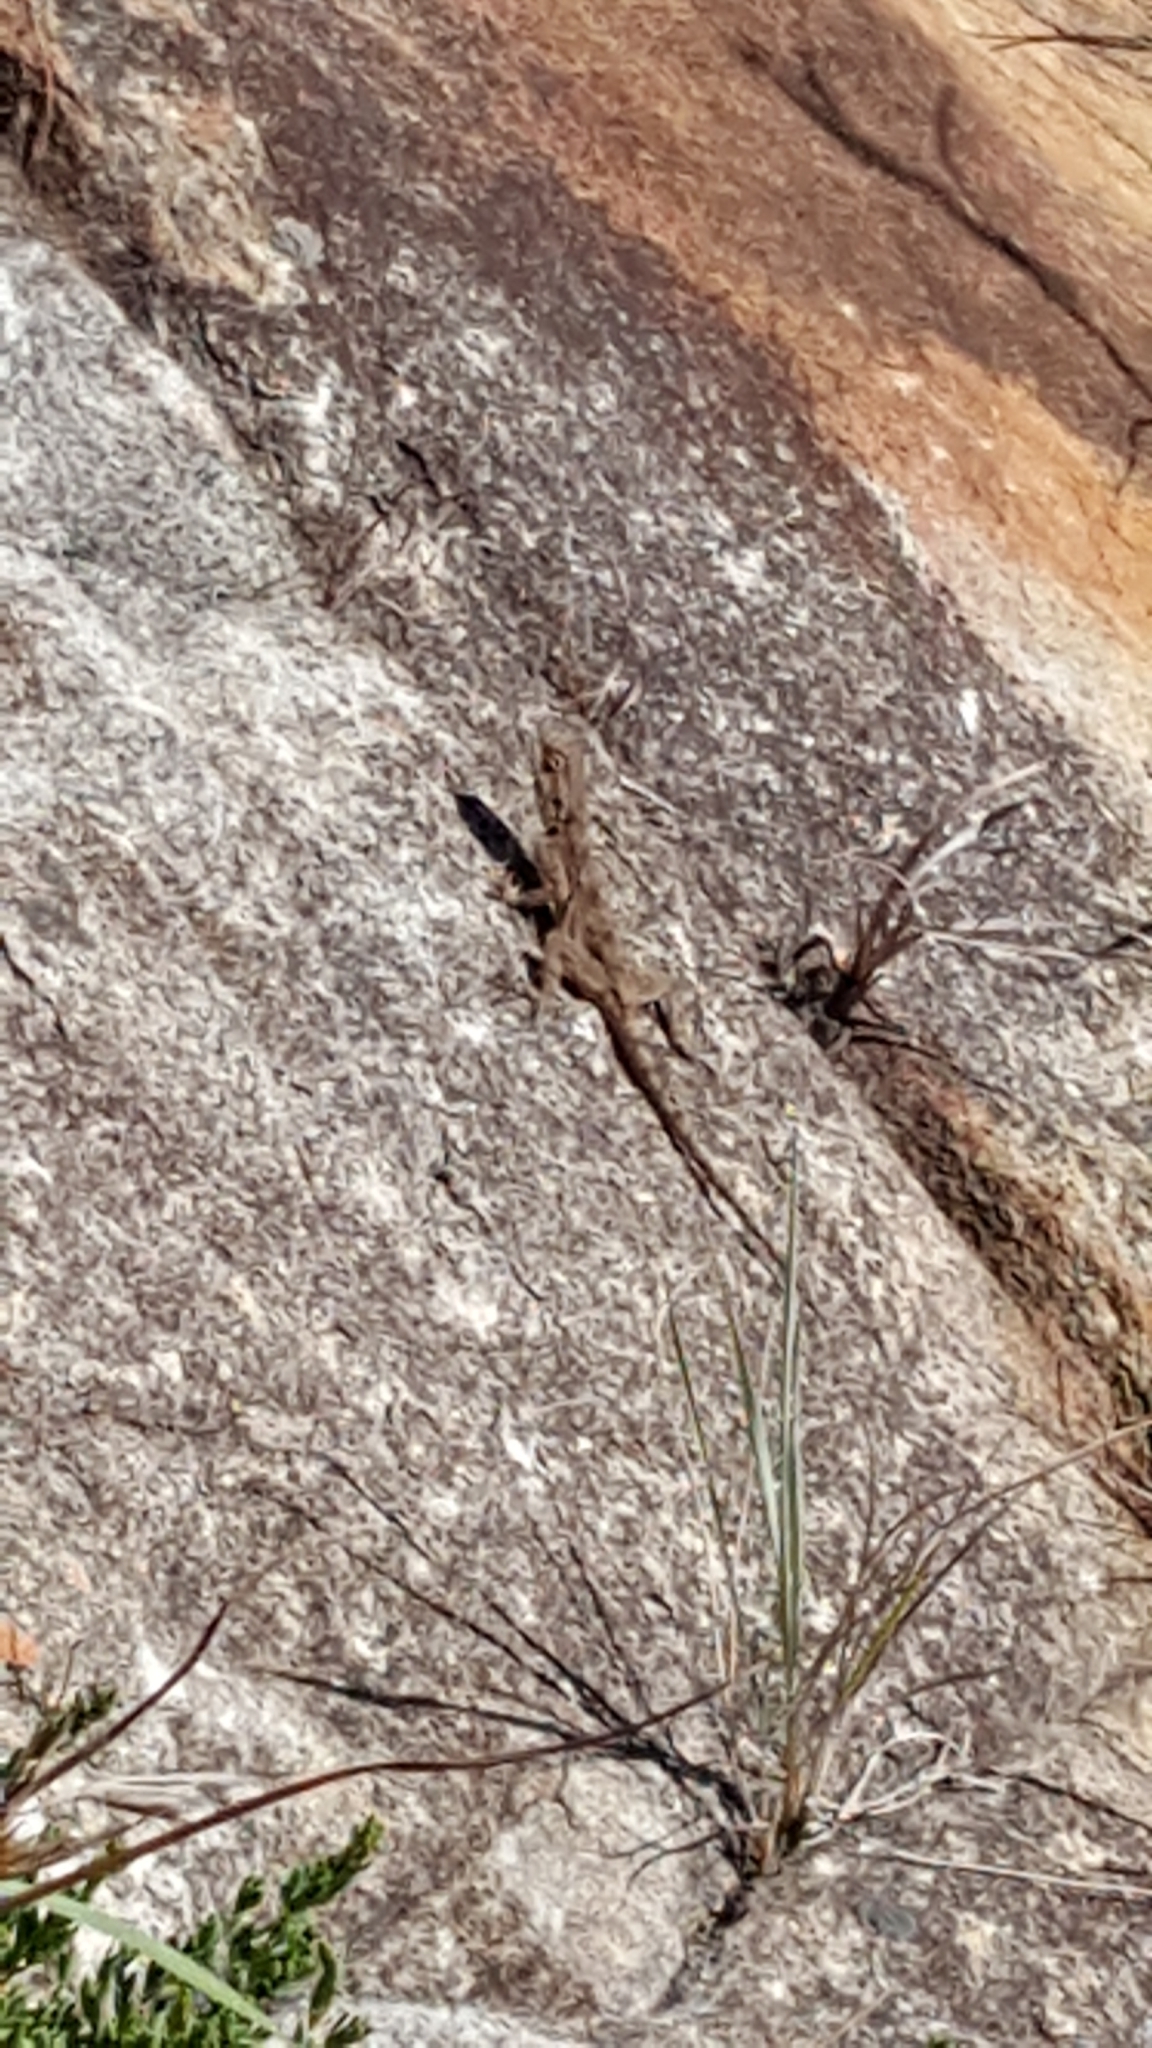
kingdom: Animalia
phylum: Chordata
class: Squamata
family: Agamidae
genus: Agama
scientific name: Agama atra
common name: Southern african rock agama
